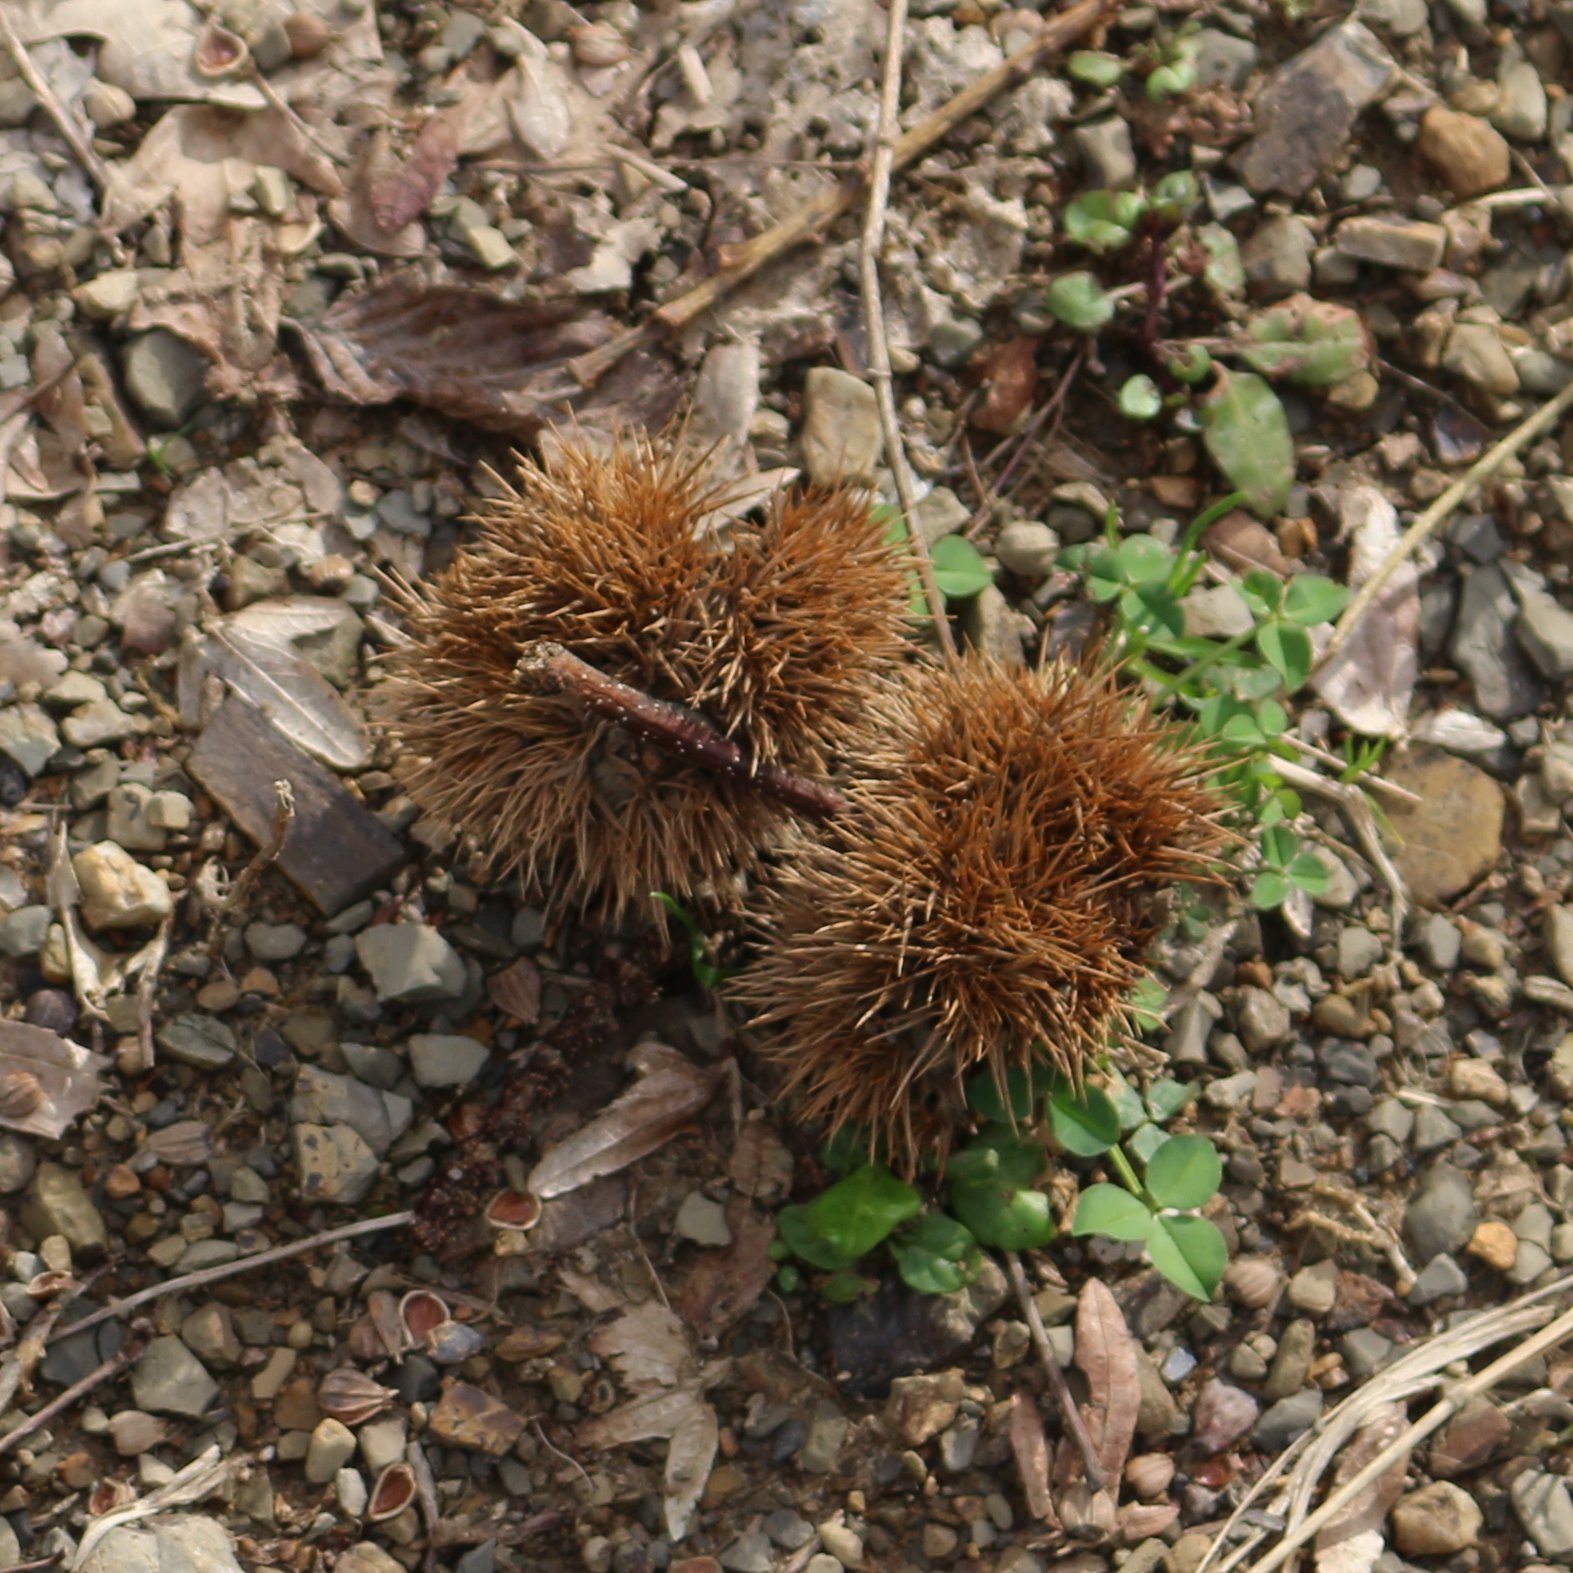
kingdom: Plantae
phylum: Tracheophyta
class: Magnoliopsida
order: Fagales
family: Fagaceae
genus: Castanea
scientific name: Castanea sativa
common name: Sweet chestnut
